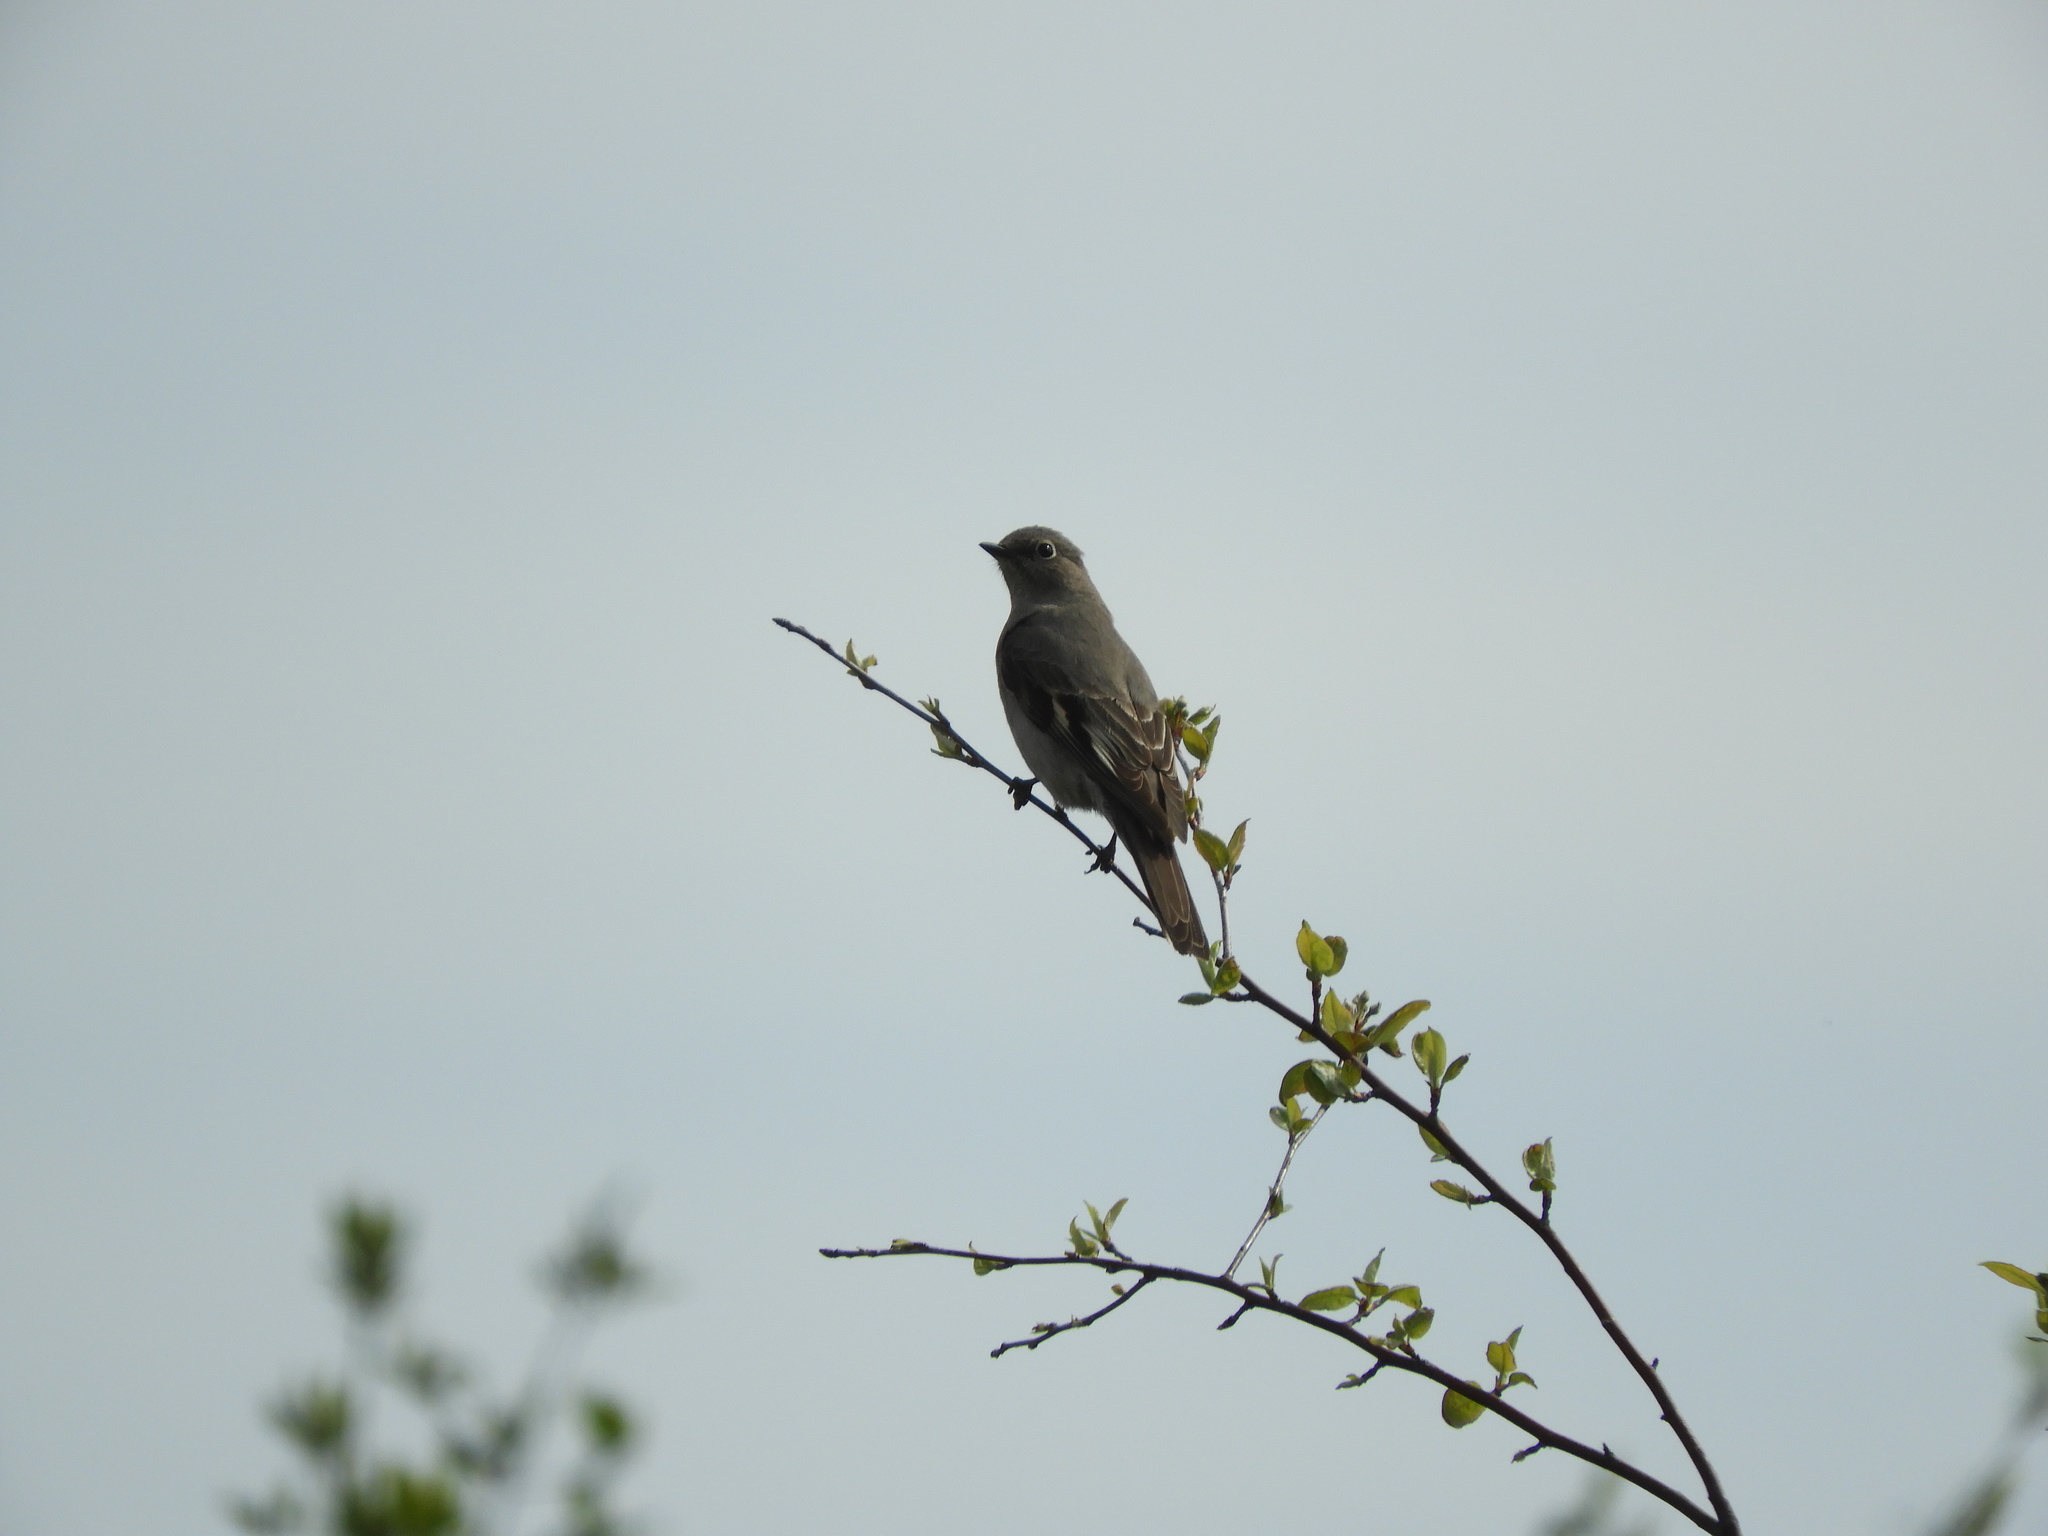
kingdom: Animalia
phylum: Chordata
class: Aves
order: Passeriformes
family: Turdidae
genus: Myadestes
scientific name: Myadestes townsendi
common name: Townsend's solitaire
